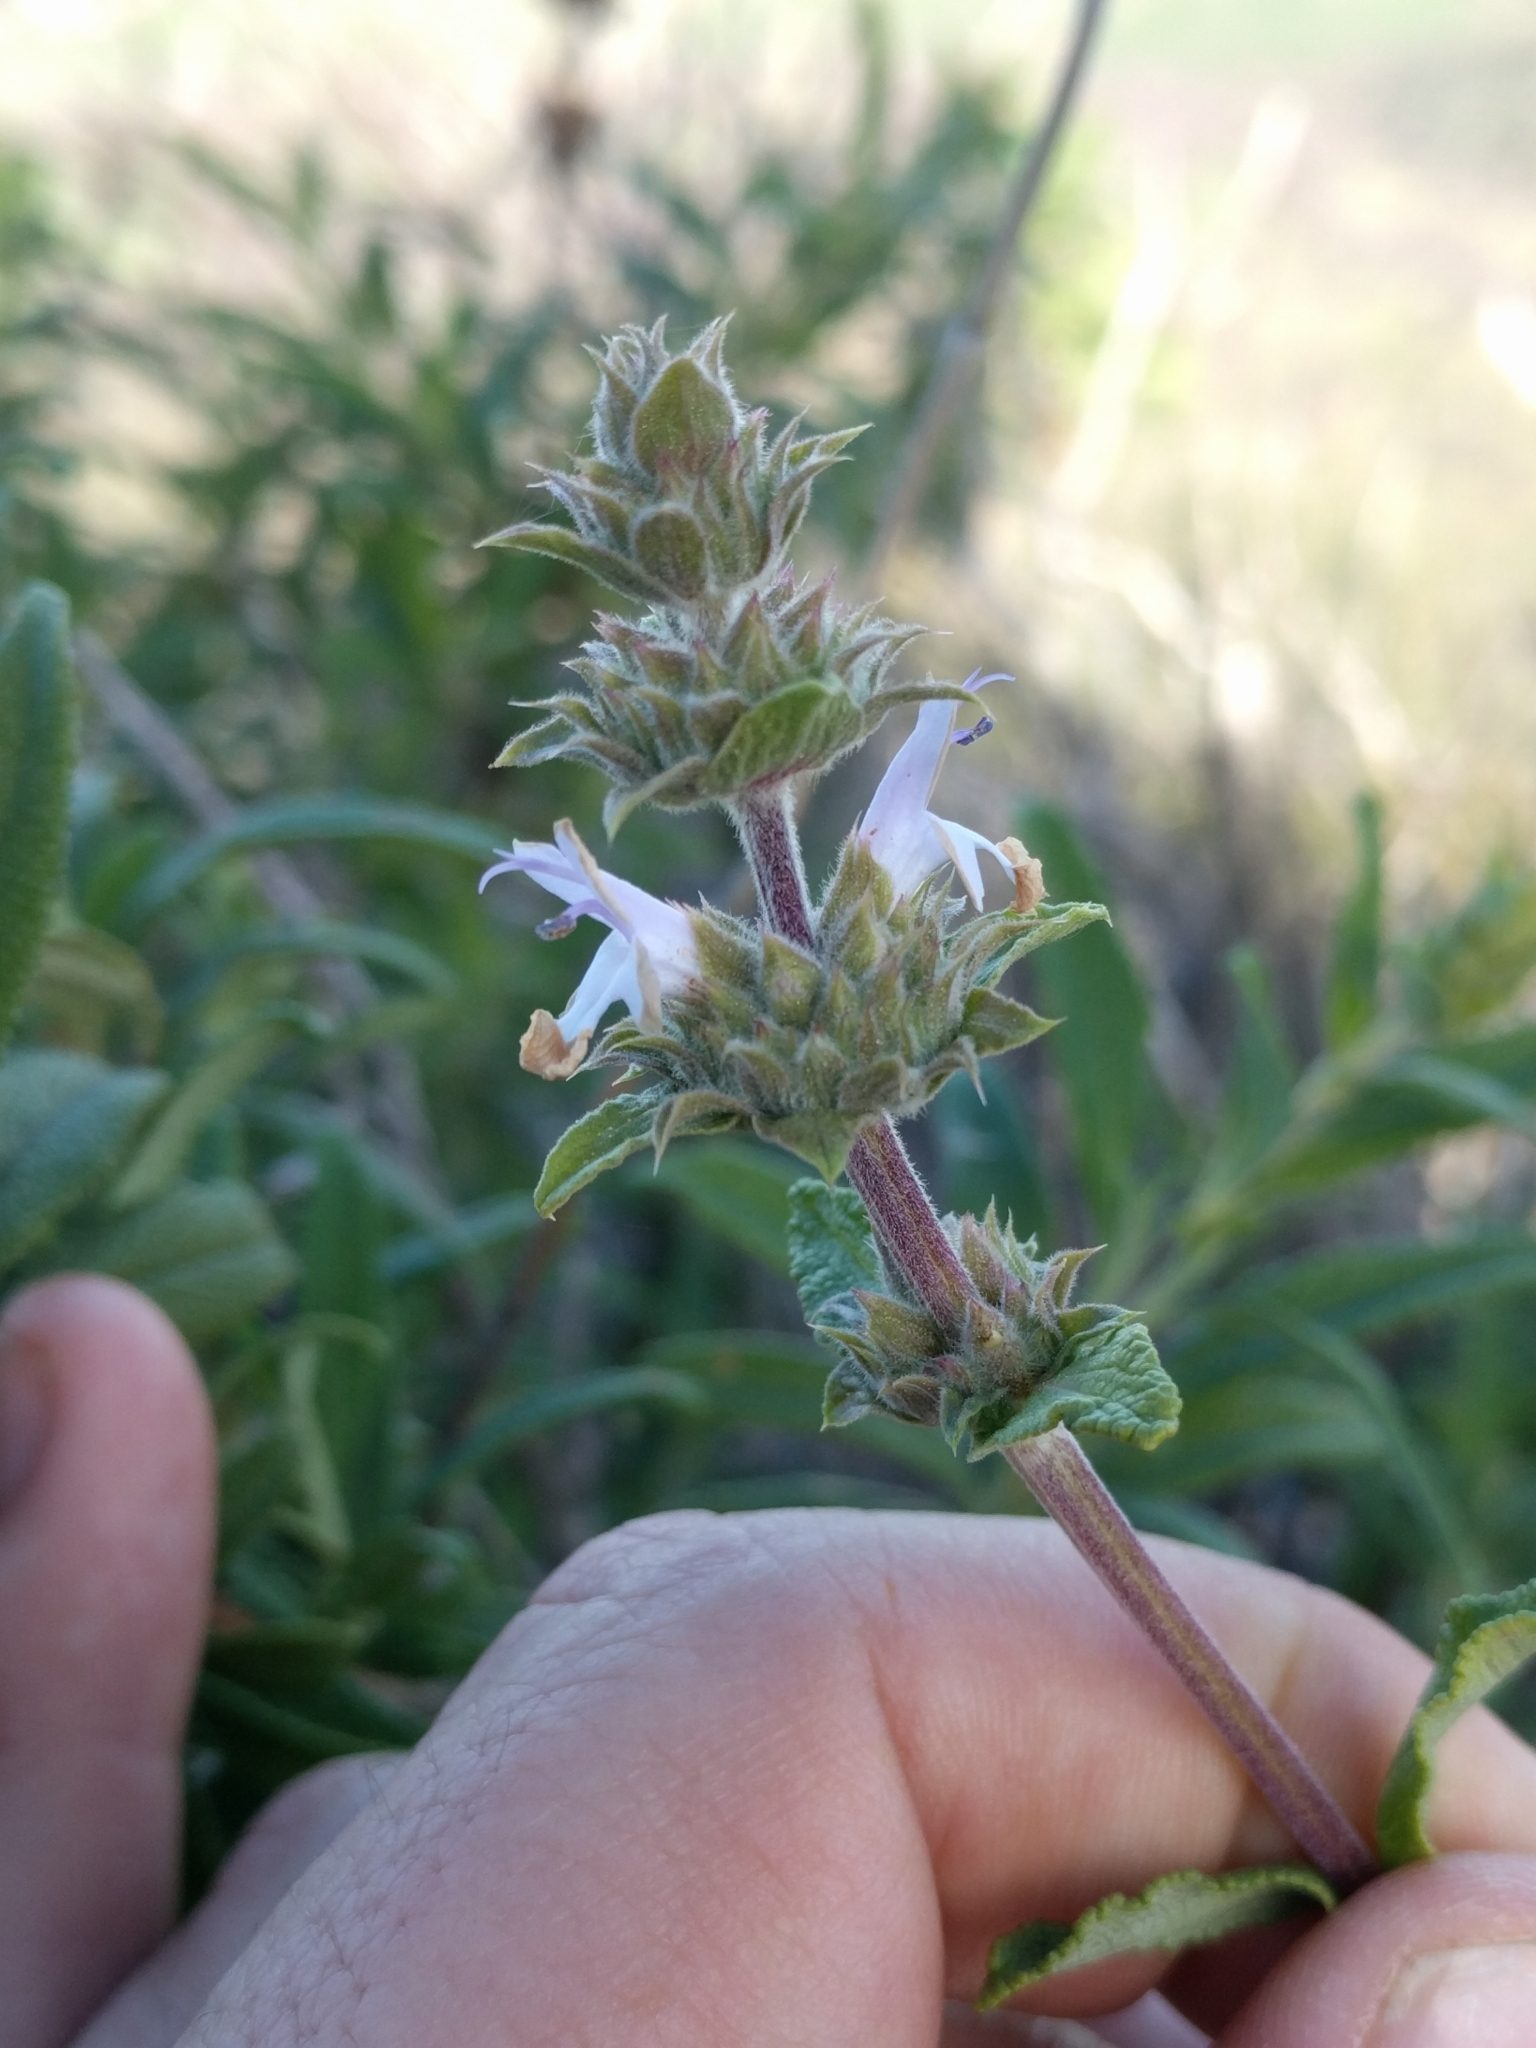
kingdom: Plantae
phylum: Tracheophyta
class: Magnoliopsida
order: Lamiales
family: Lamiaceae
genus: Salvia
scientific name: Salvia mellifera
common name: Black sage
